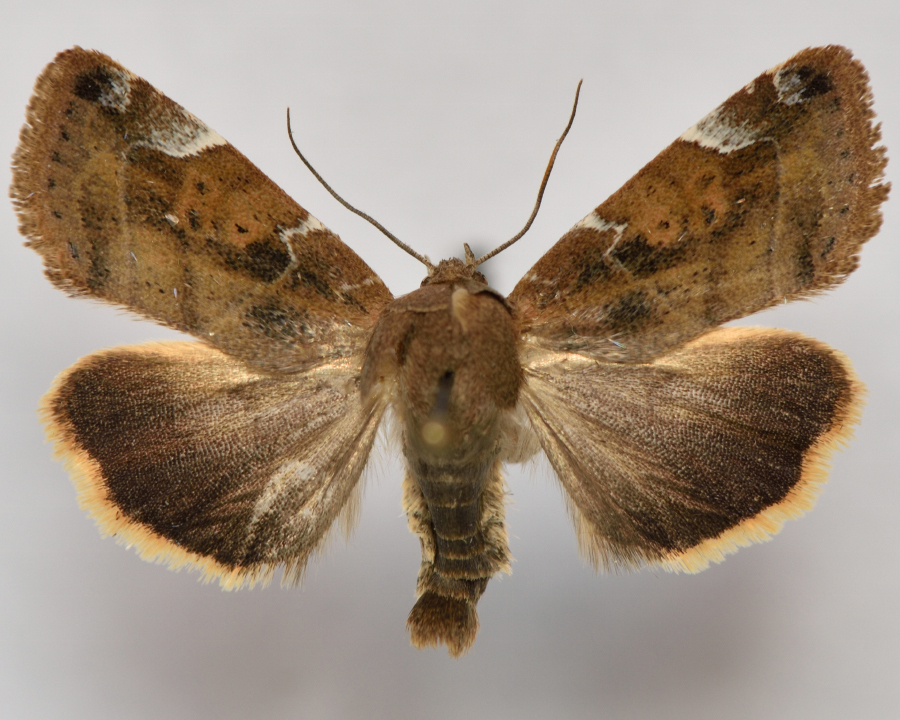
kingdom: Animalia
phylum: Arthropoda
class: Insecta
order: Lepidoptera
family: Noctuidae
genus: Cosmia
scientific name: Cosmia affinis
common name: Lesser-spotted pinion
